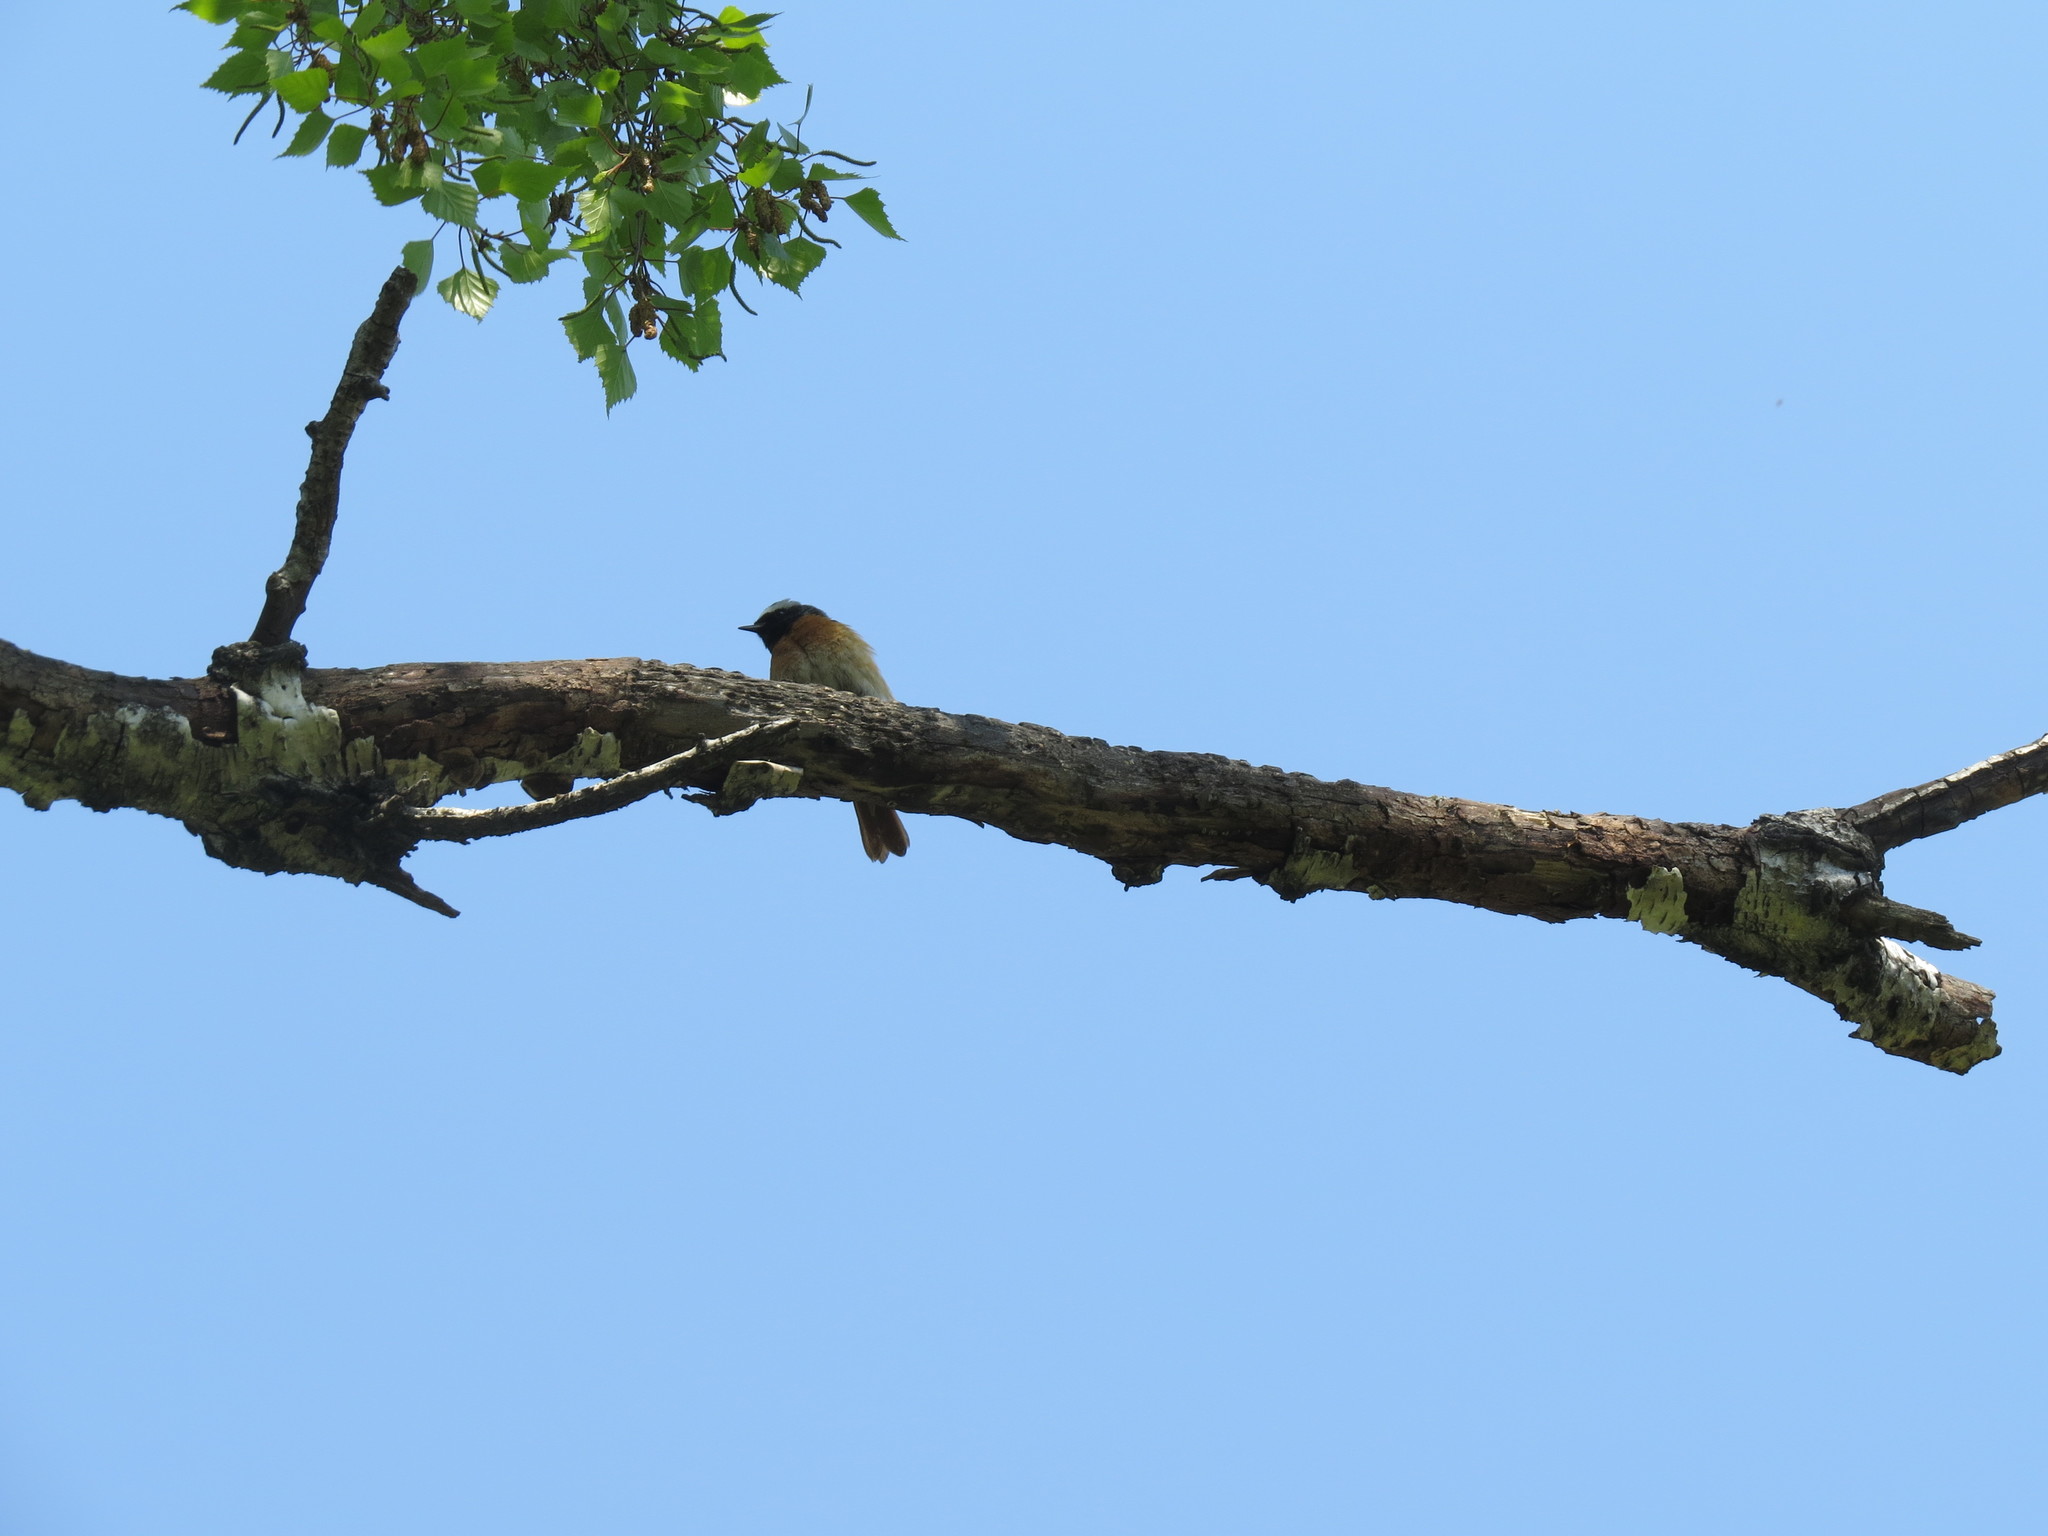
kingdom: Animalia
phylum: Chordata
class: Aves
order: Passeriformes
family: Muscicapidae
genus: Phoenicurus
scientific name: Phoenicurus phoenicurus
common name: Common redstart
